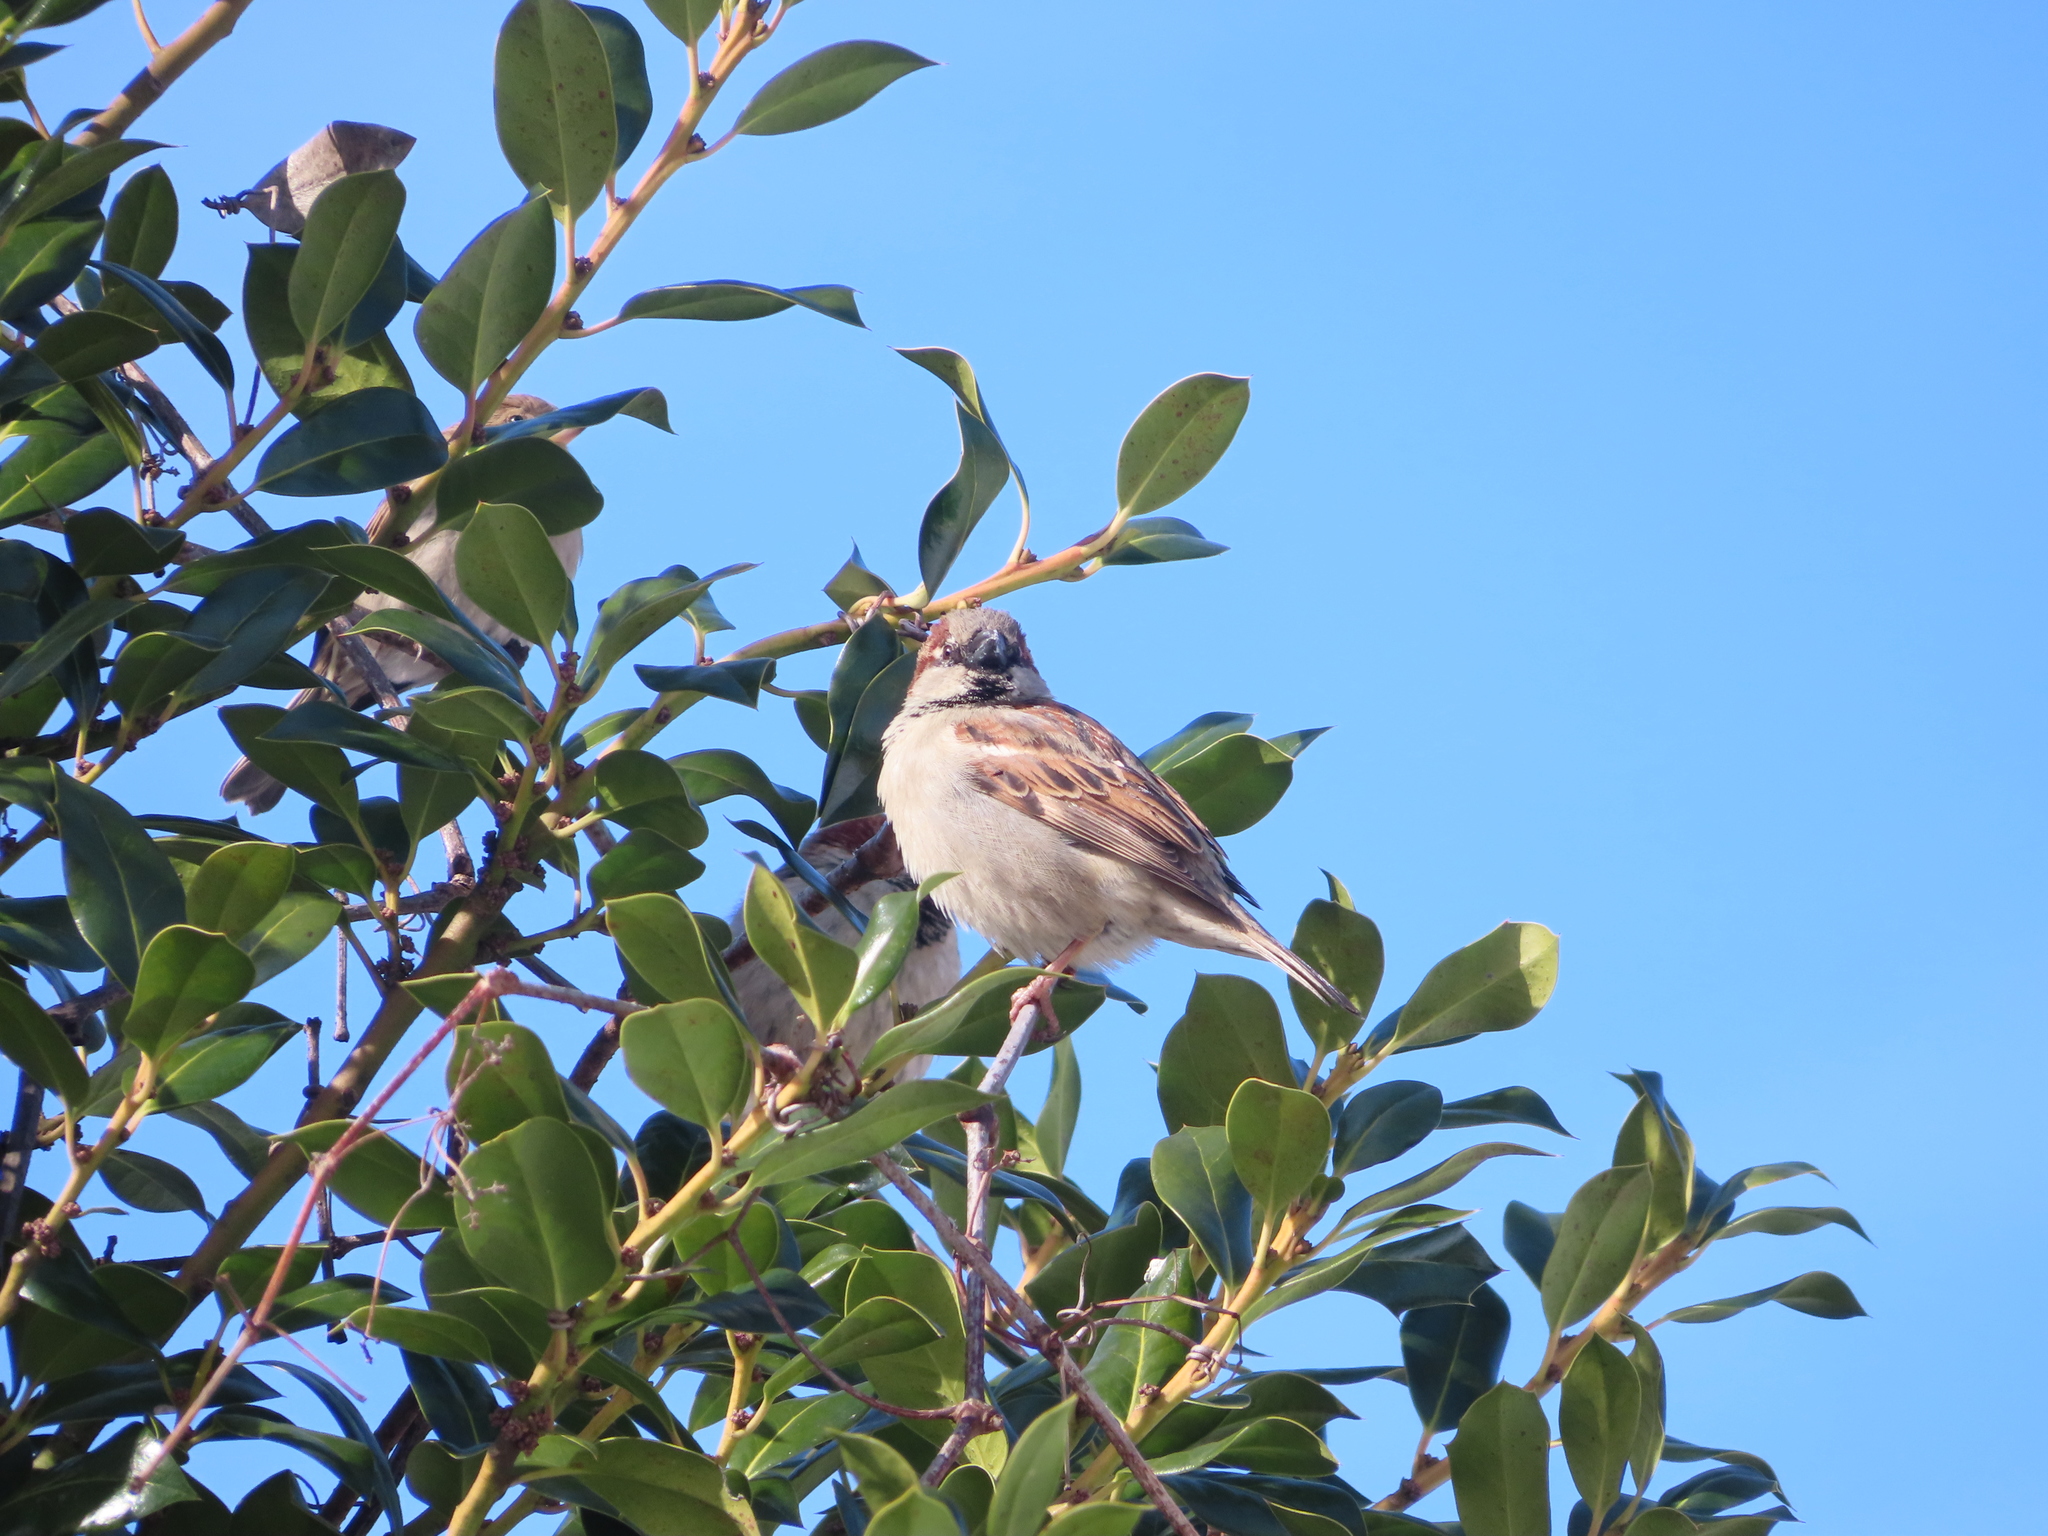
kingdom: Animalia
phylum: Chordata
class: Aves
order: Passeriformes
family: Passeridae
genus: Passer
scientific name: Passer domesticus
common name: House sparrow
